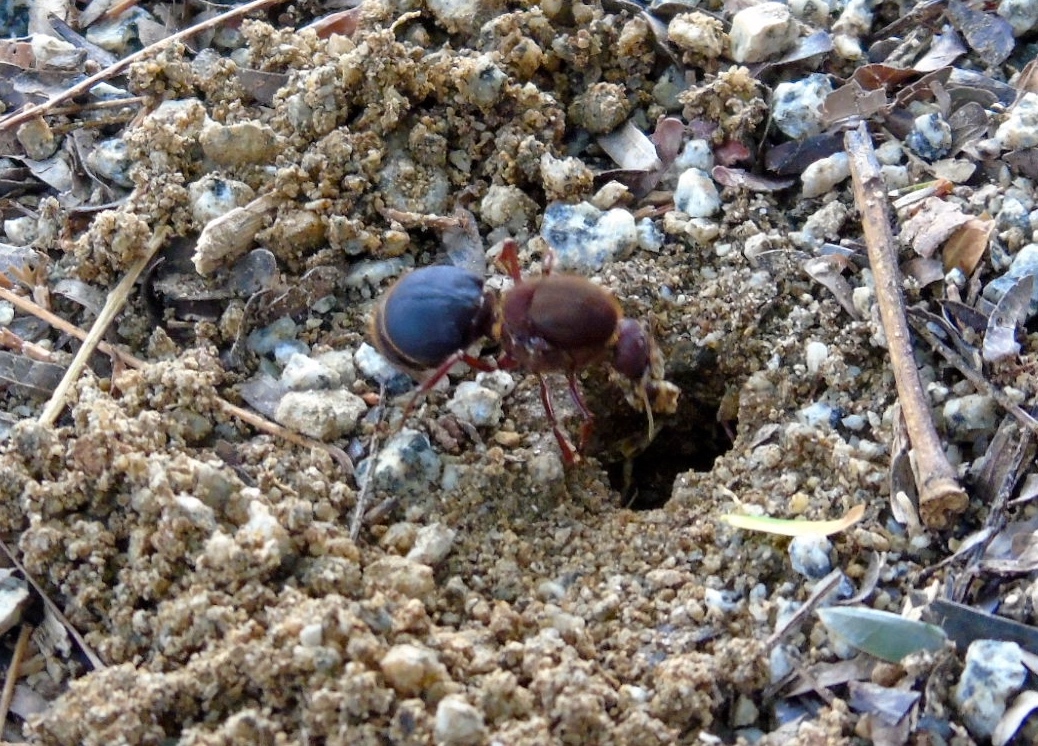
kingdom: Animalia
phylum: Arthropoda
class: Insecta
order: Hymenoptera
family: Formicidae
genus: Atta
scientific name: Atta mexicana
